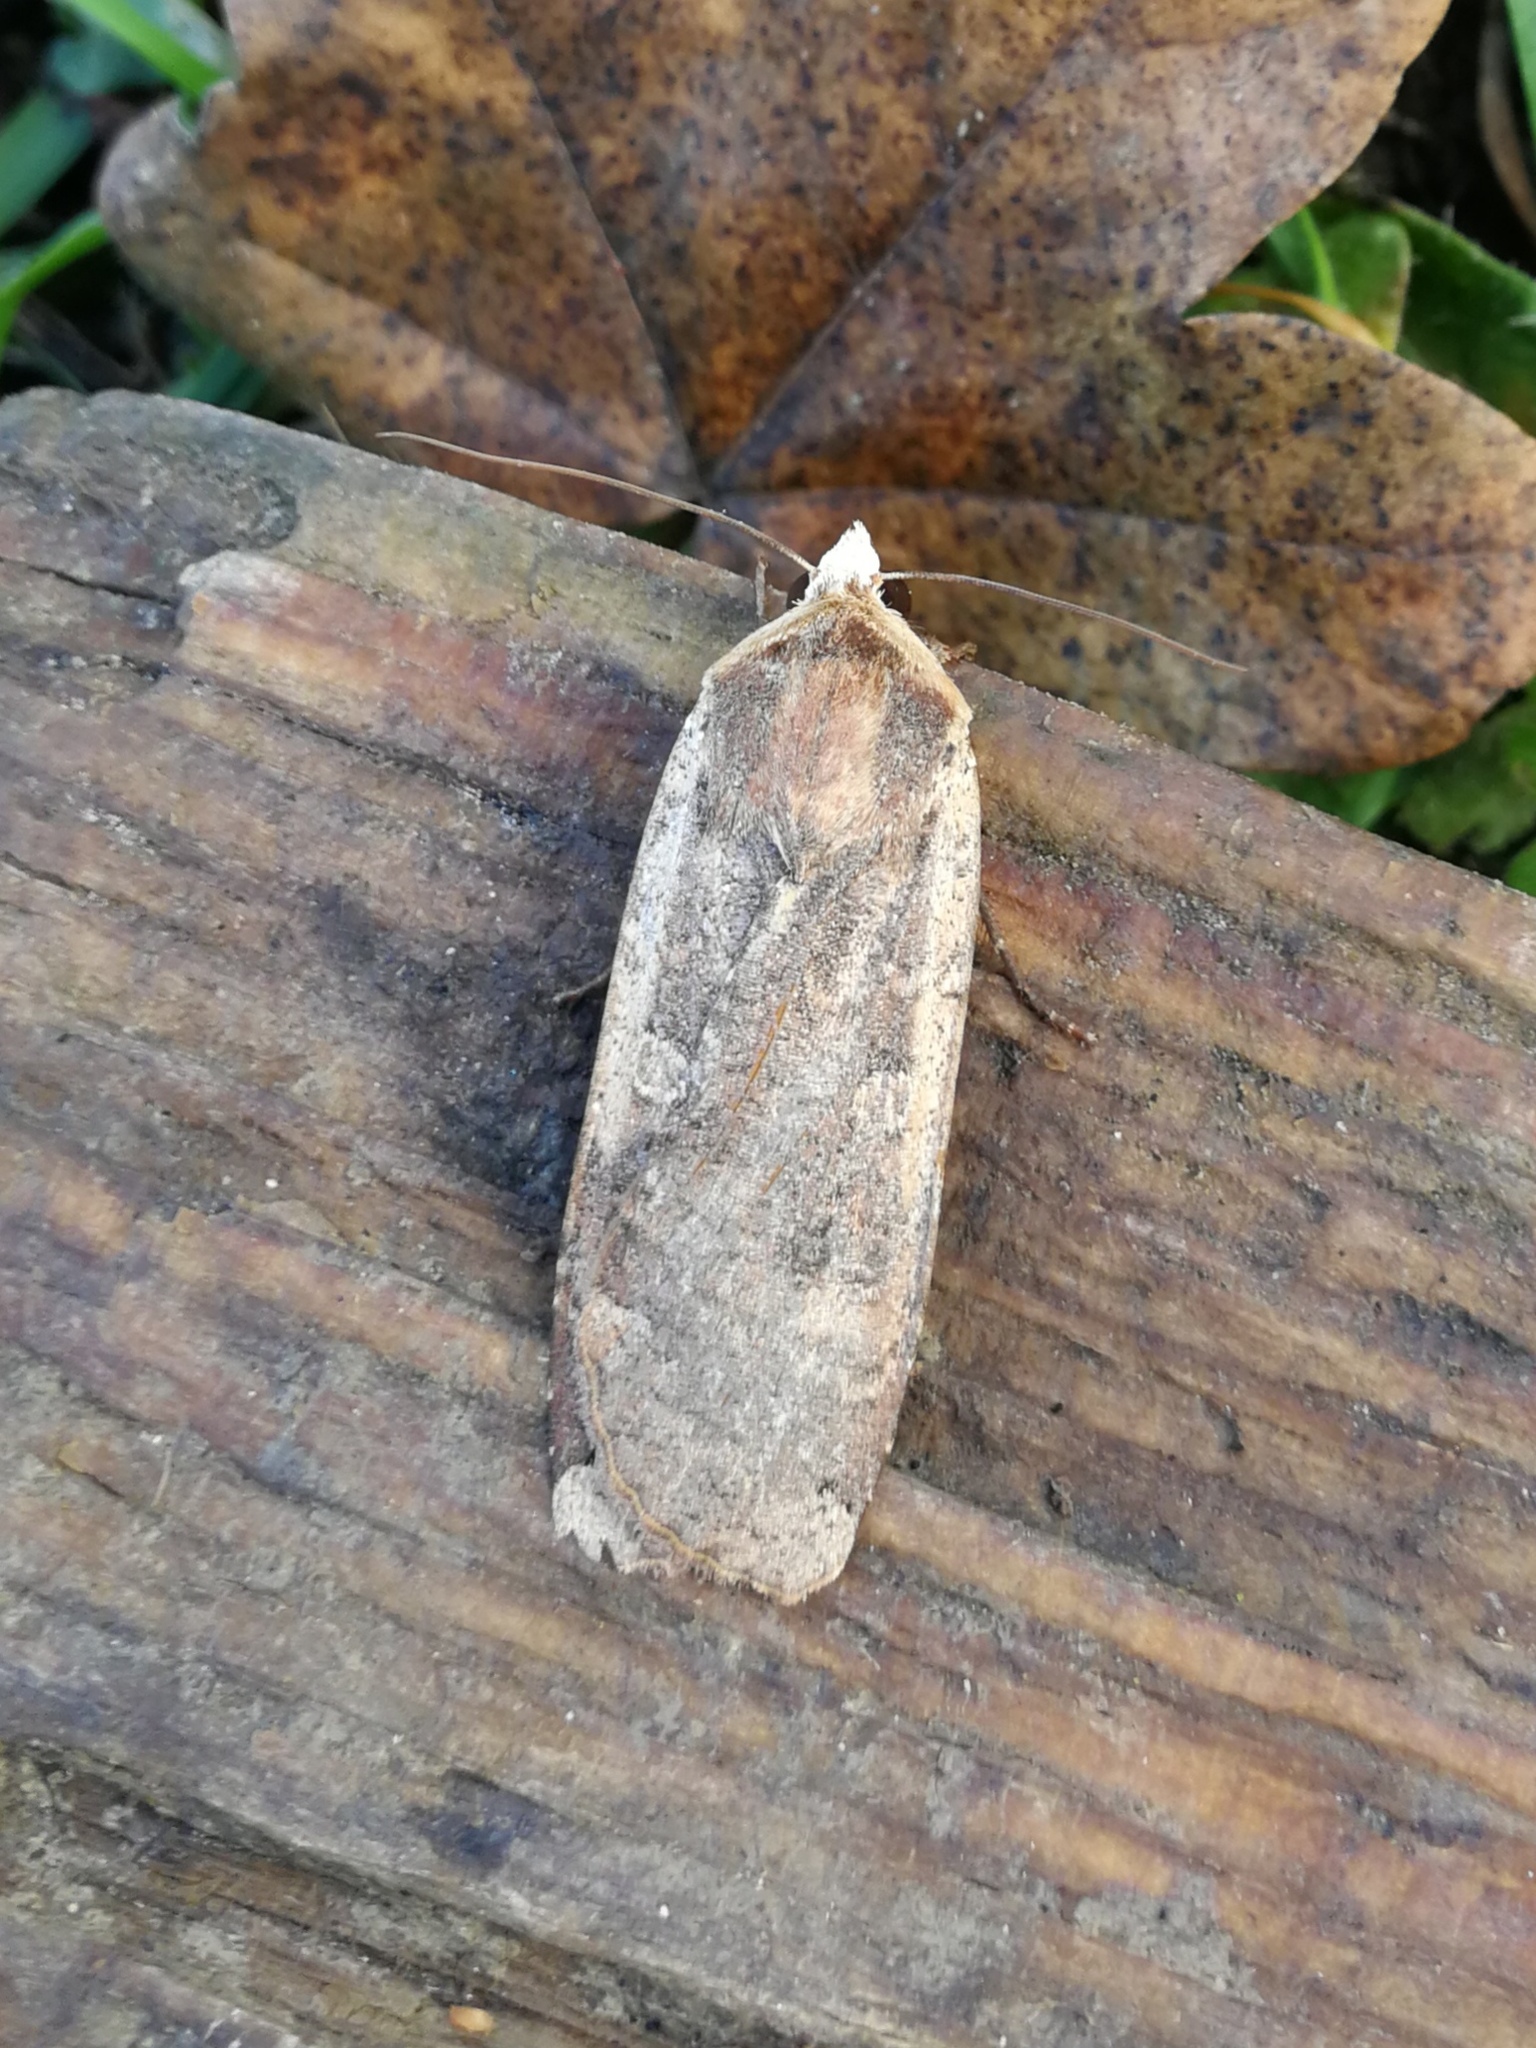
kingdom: Animalia
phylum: Arthropoda
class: Insecta
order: Lepidoptera
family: Noctuidae
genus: Noctua
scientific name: Noctua pronuba
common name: Large yellow underwing
